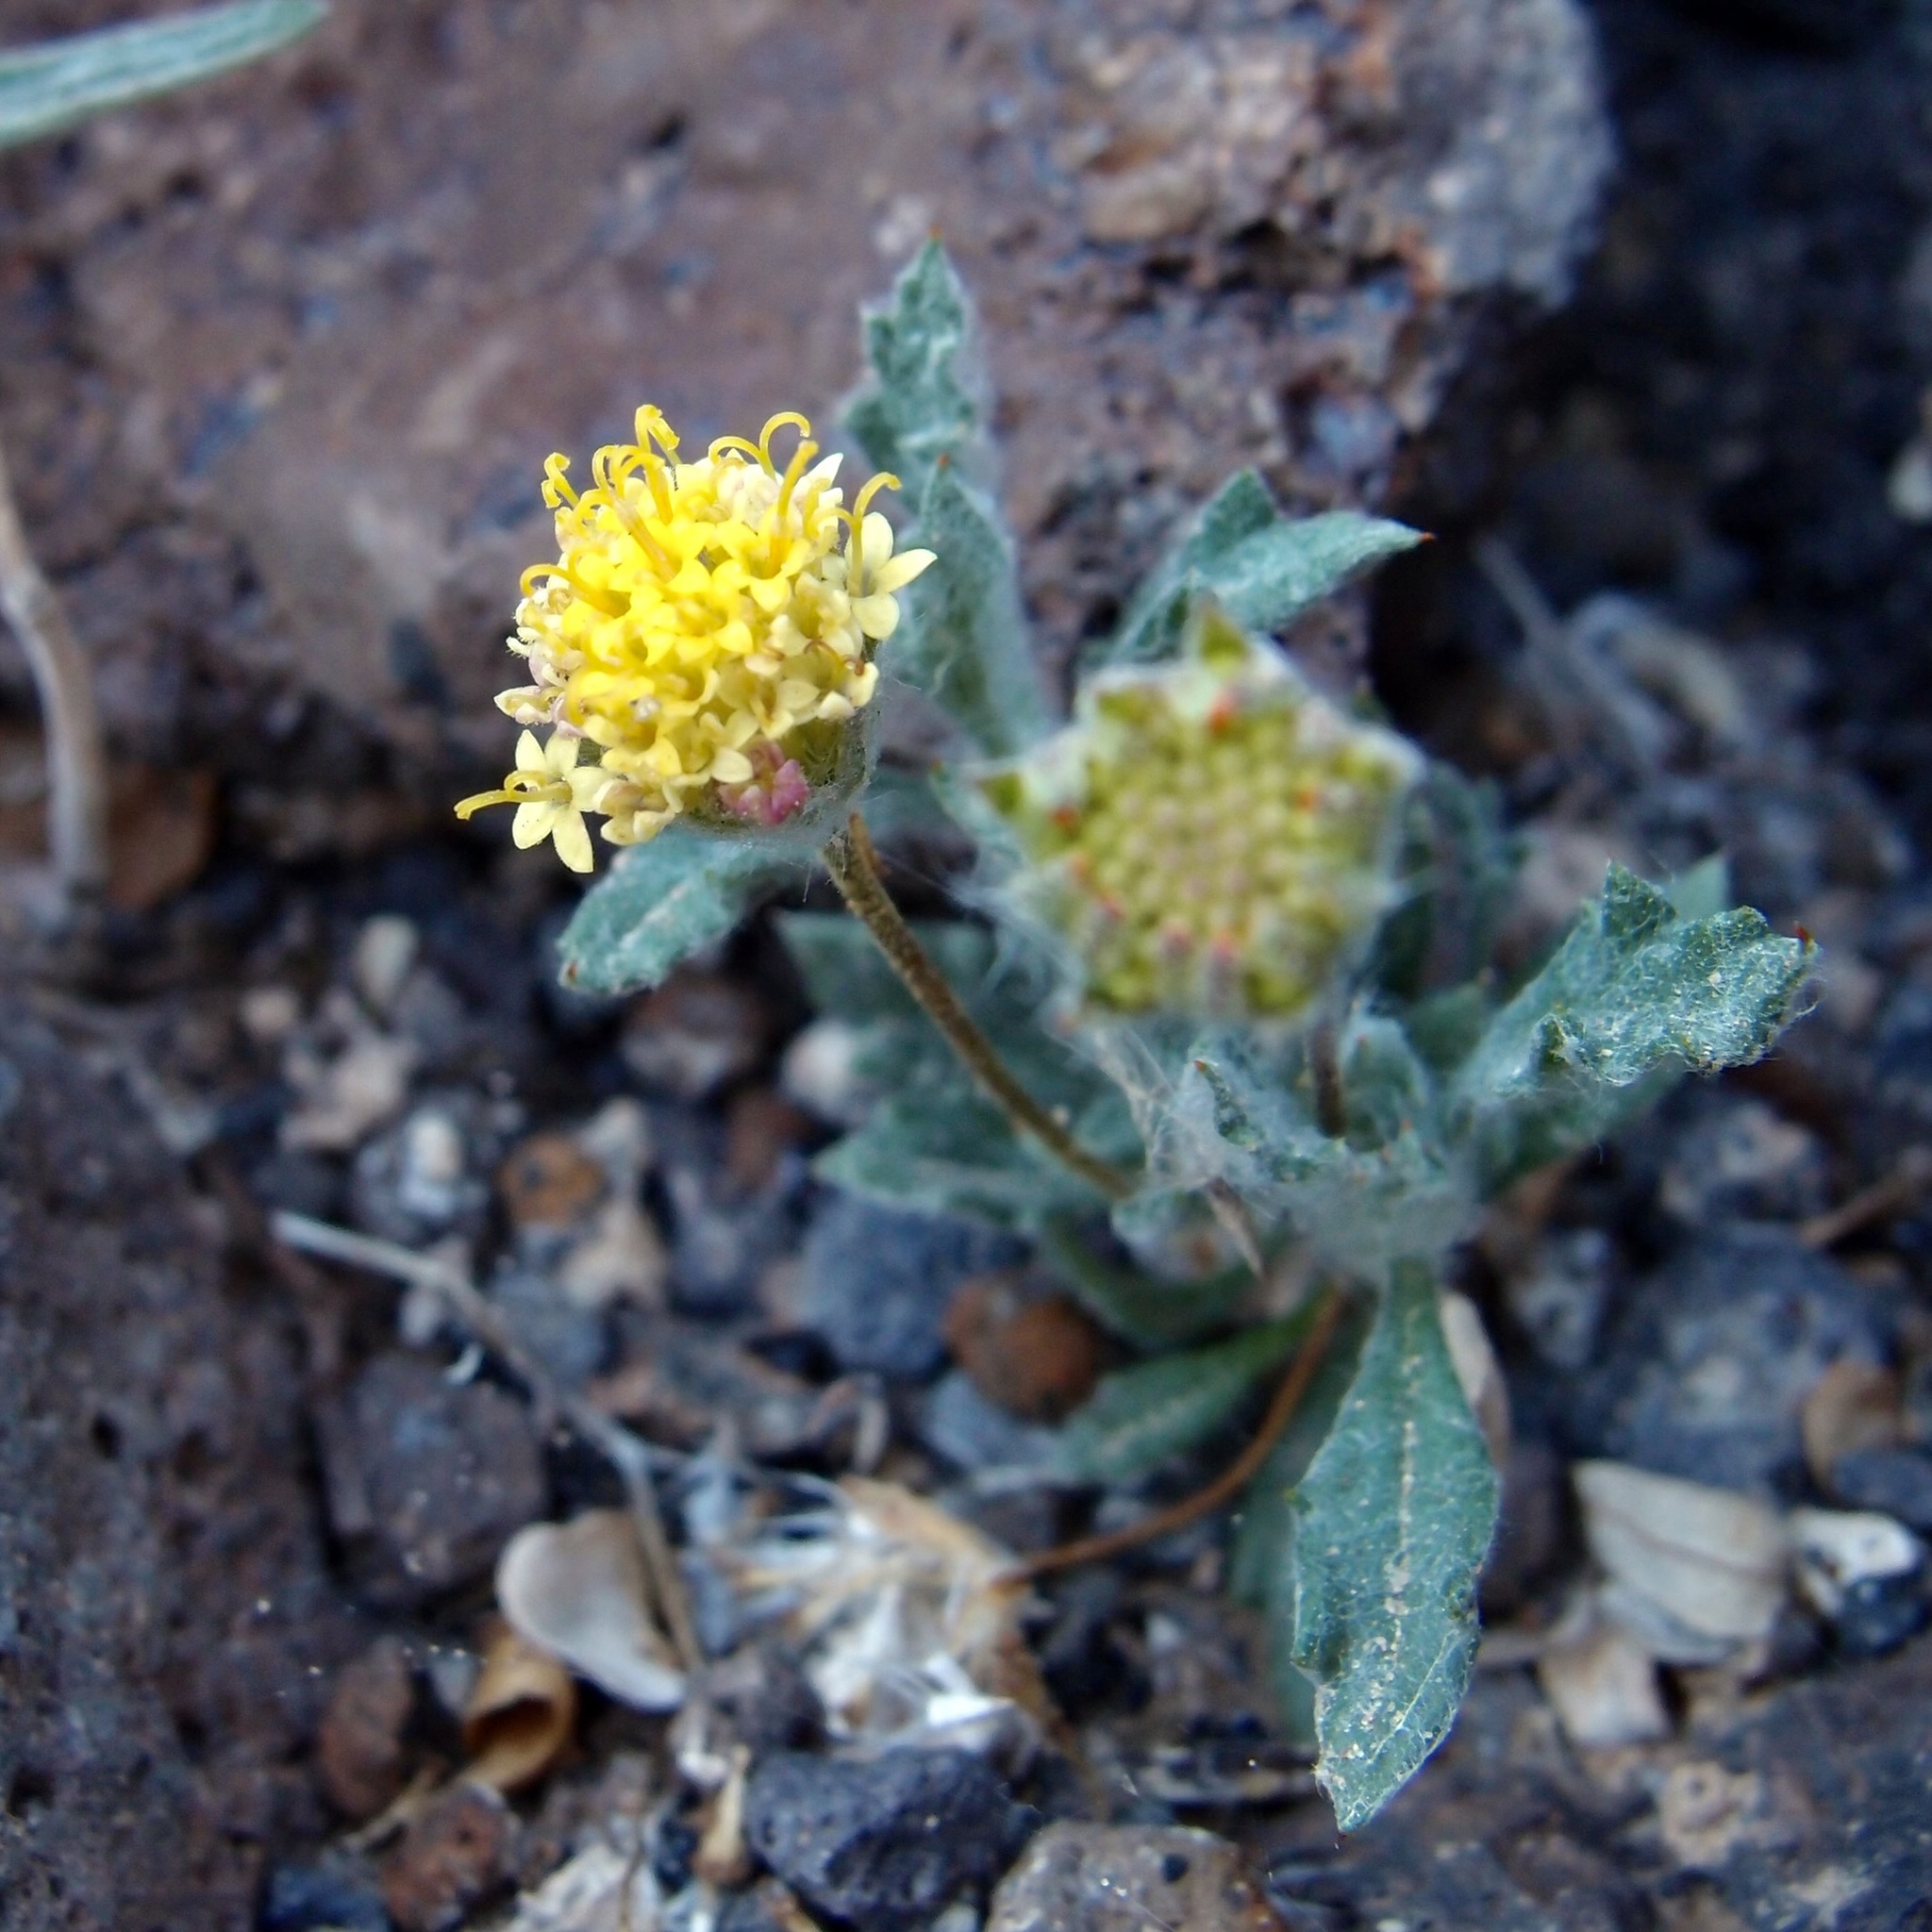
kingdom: Plantae
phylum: Tracheophyta
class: Magnoliopsida
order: Asterales
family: Asteraceae
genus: Trichoptilium
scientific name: Trichoptilium incisum
